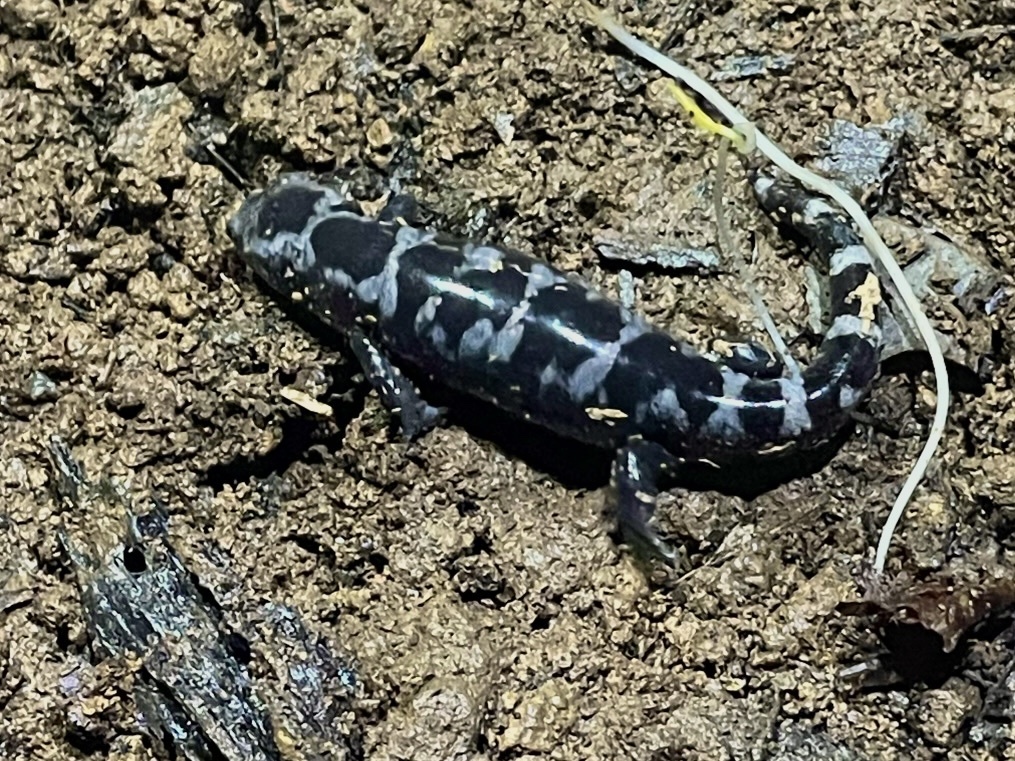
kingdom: Animalia
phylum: Chordata
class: Amphibia
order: Caudata
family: Ambystomatidae
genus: Ambystoma
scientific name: Ambystoma opacum
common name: Marbled salamander
